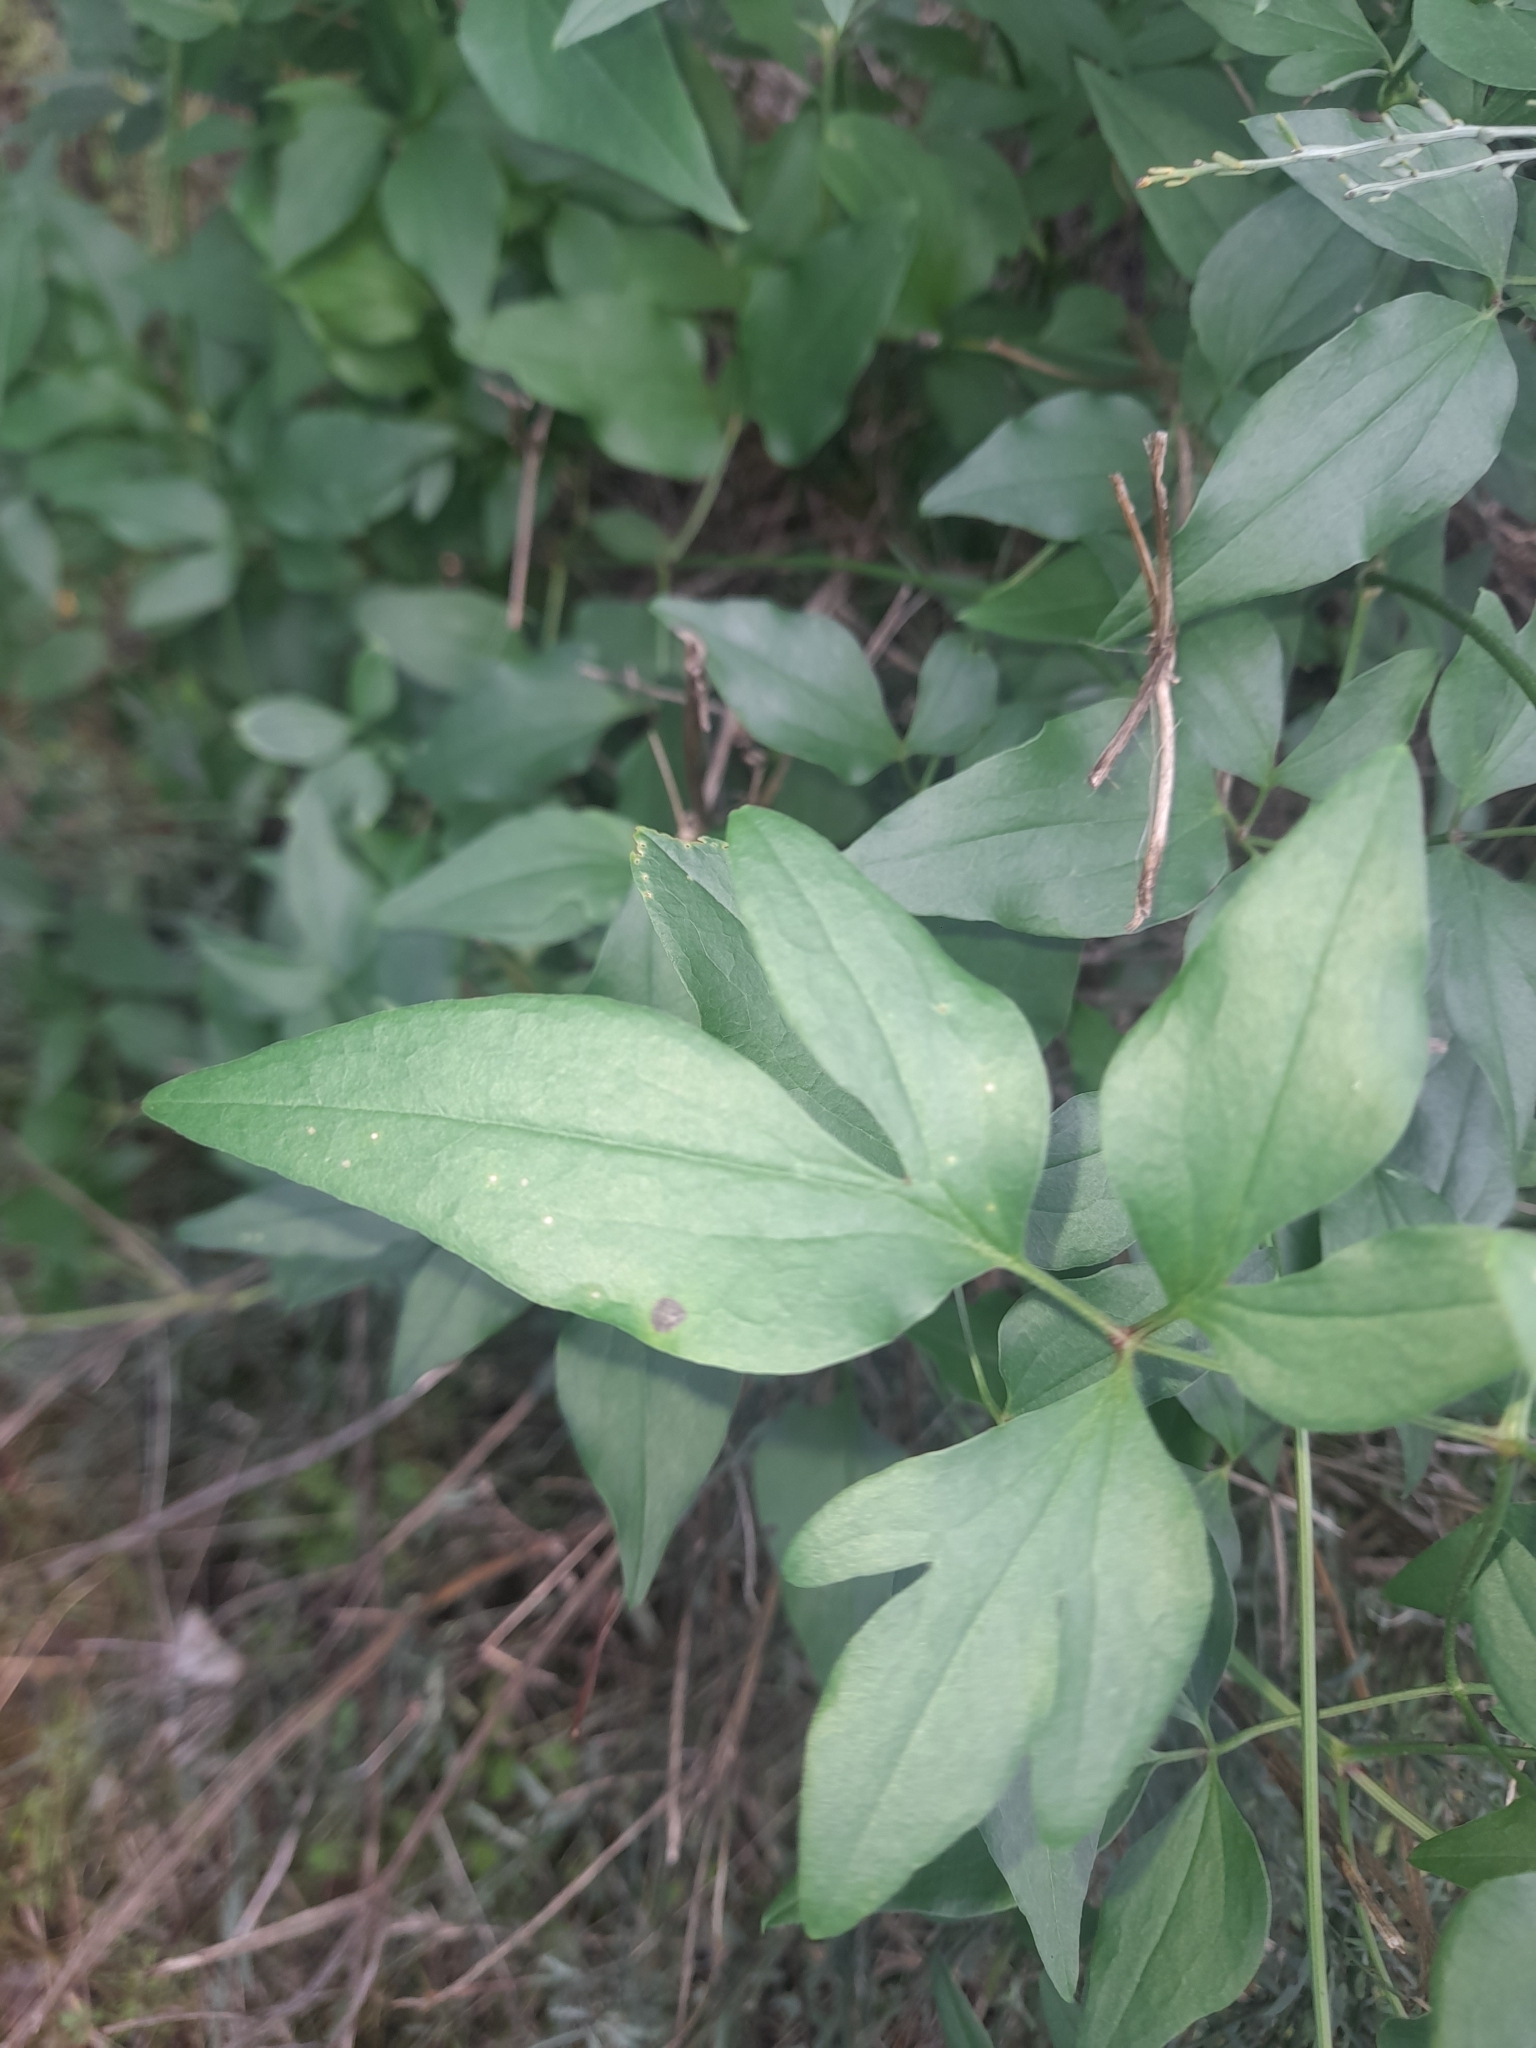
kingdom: Plantae
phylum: Tracheophyta
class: Magnoliopsida
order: Ranunculales
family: Ranunculaceae
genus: Clematis
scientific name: Clematis flammula
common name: Virgin's-bower
